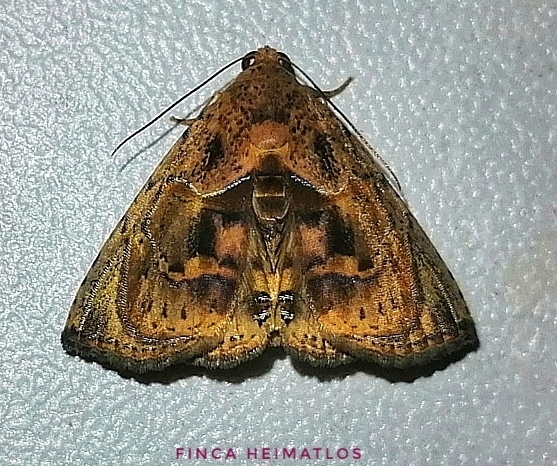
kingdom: Animalia
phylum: Arthropoda
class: Insecta
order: Lepidoptera
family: Erebidae
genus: Calydia
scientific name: Calydia osseata
